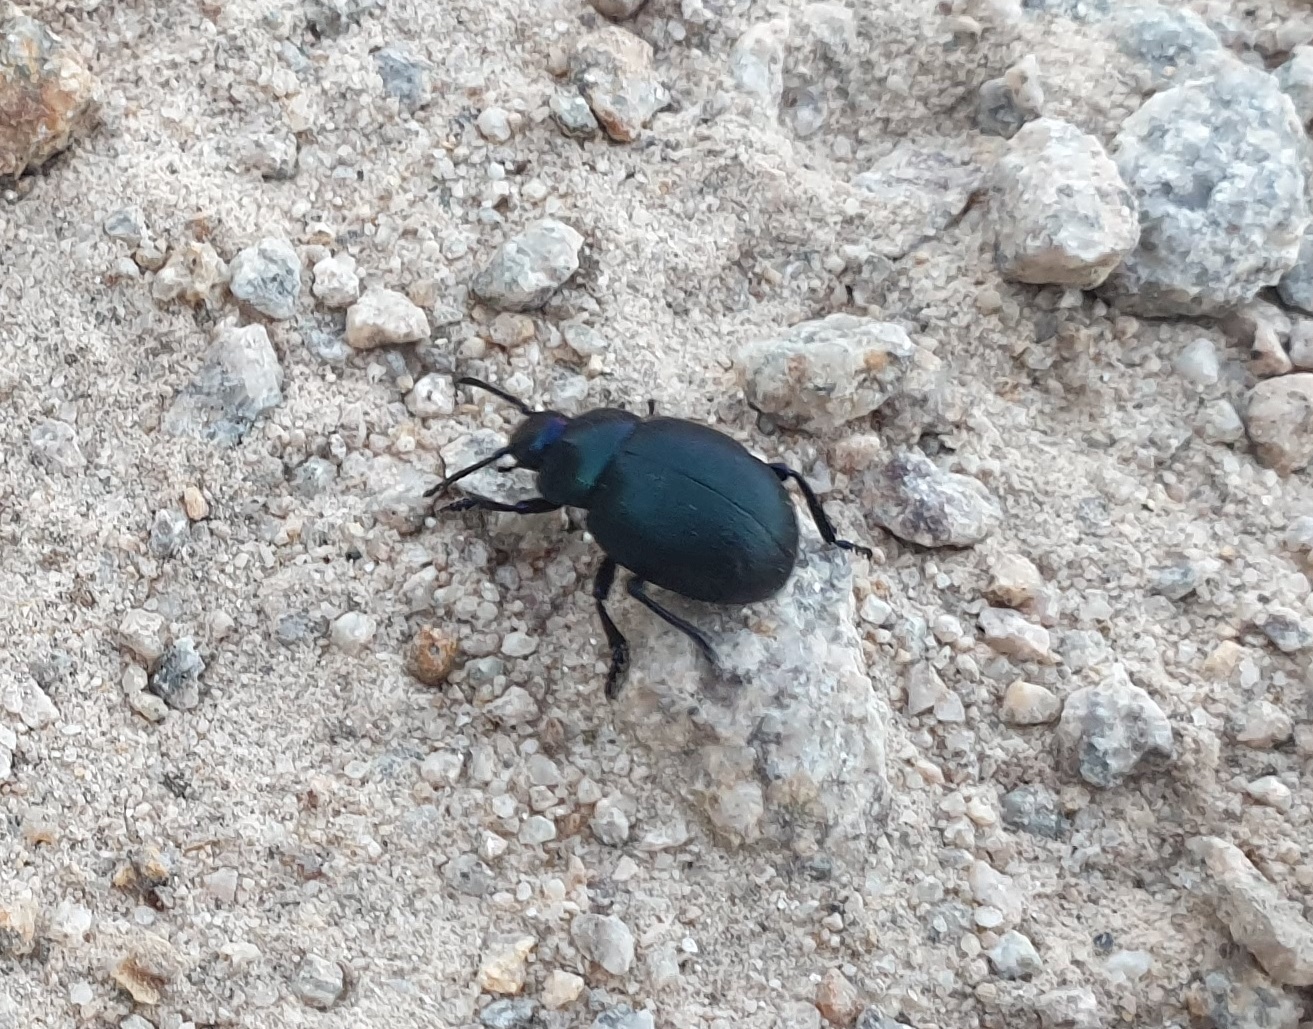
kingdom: Animalia
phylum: Arthropoda
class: Insecta
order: Coleoptera
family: Chrysomelidae
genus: Timarcha
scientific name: Timarcha goettingensis
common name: Small bloody-nosed beetle
